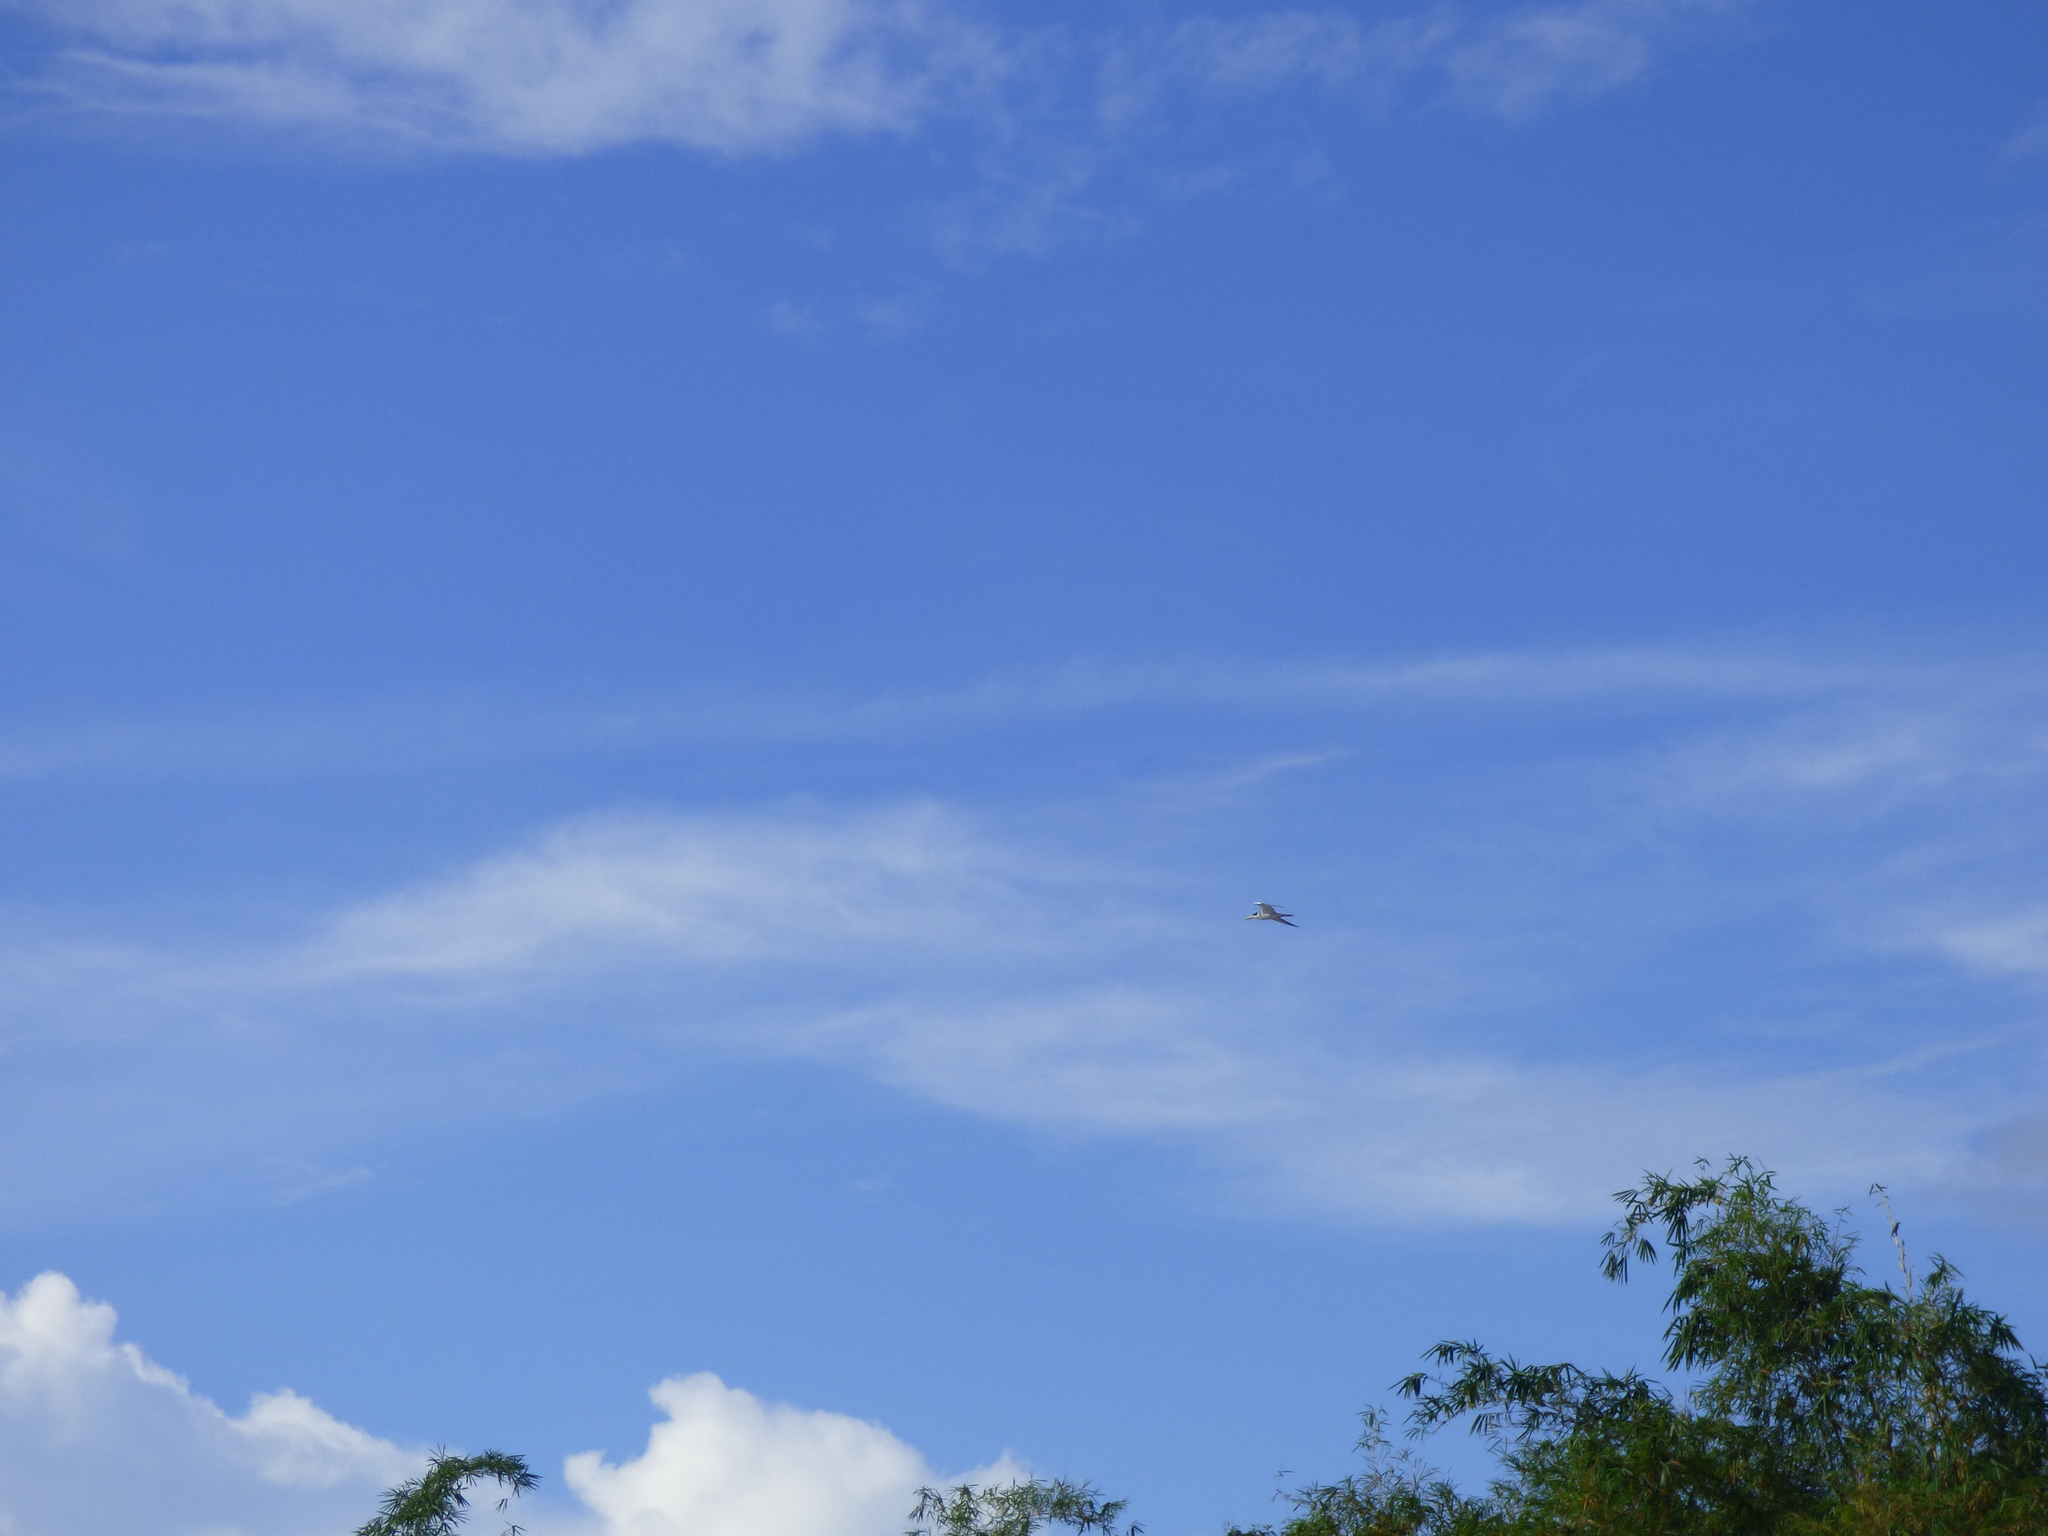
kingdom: Animalia
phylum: Chordata
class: Aves
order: Charadriiformes
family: Laridae
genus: Phaetusa
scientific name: Phaetusa simplex
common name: Large-billed tern
